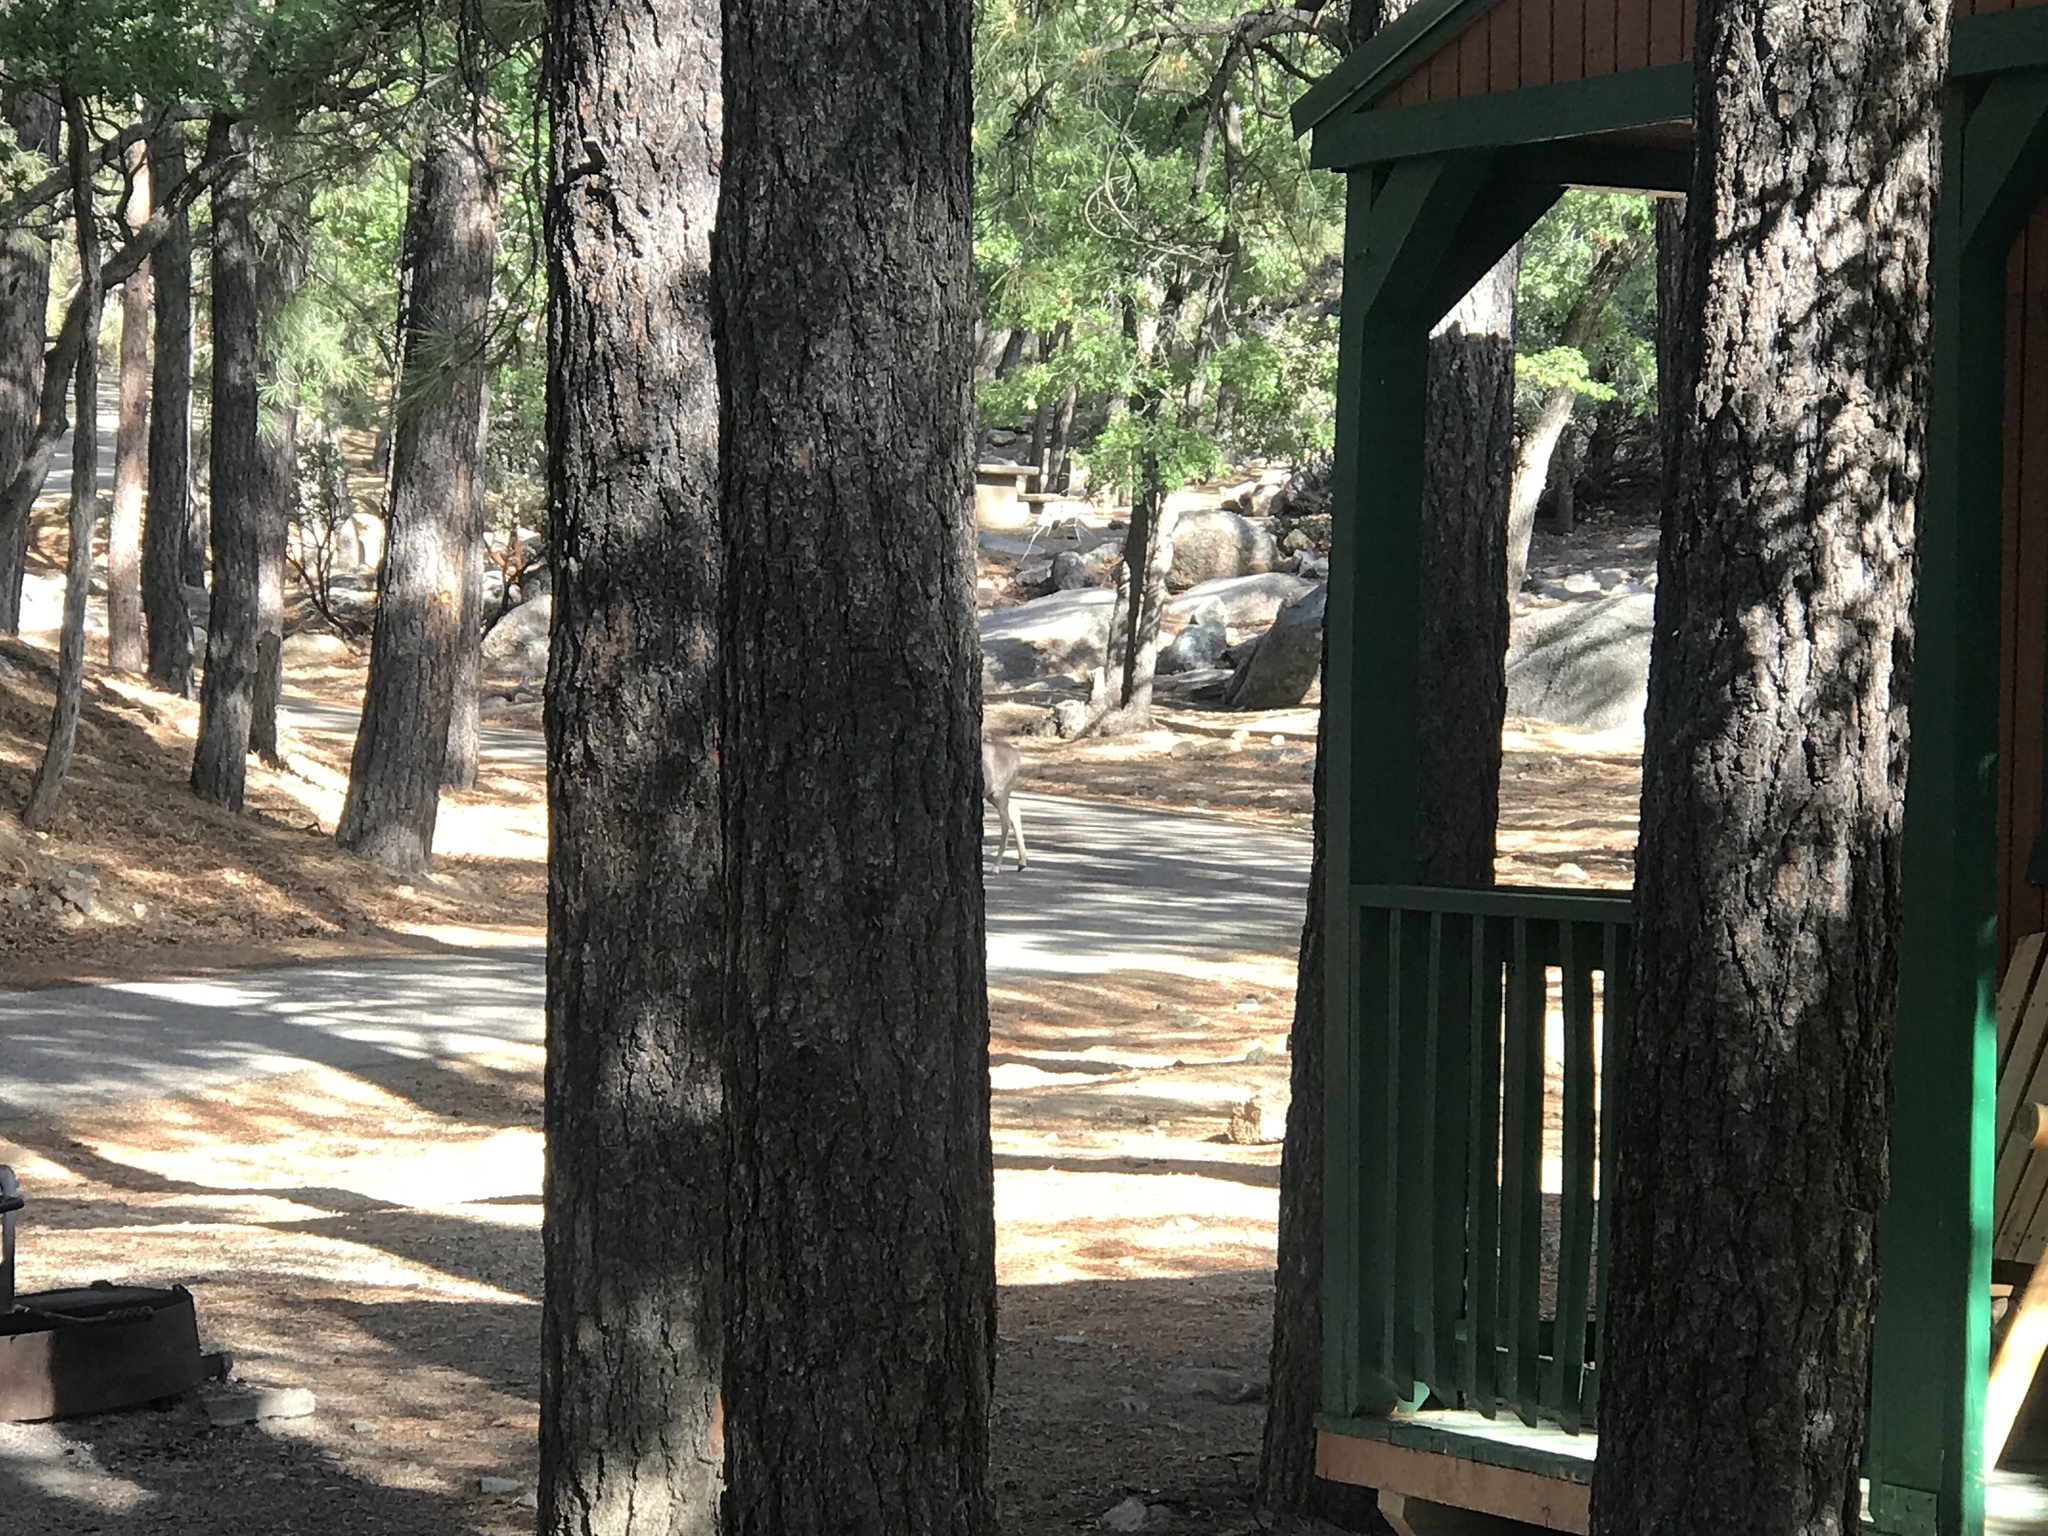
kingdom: Animalia
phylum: Chordata
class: Mammalia
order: Artiodactyla
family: Cervidae
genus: Odocoileus
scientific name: Odocoileus hemionus
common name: Mule deer
